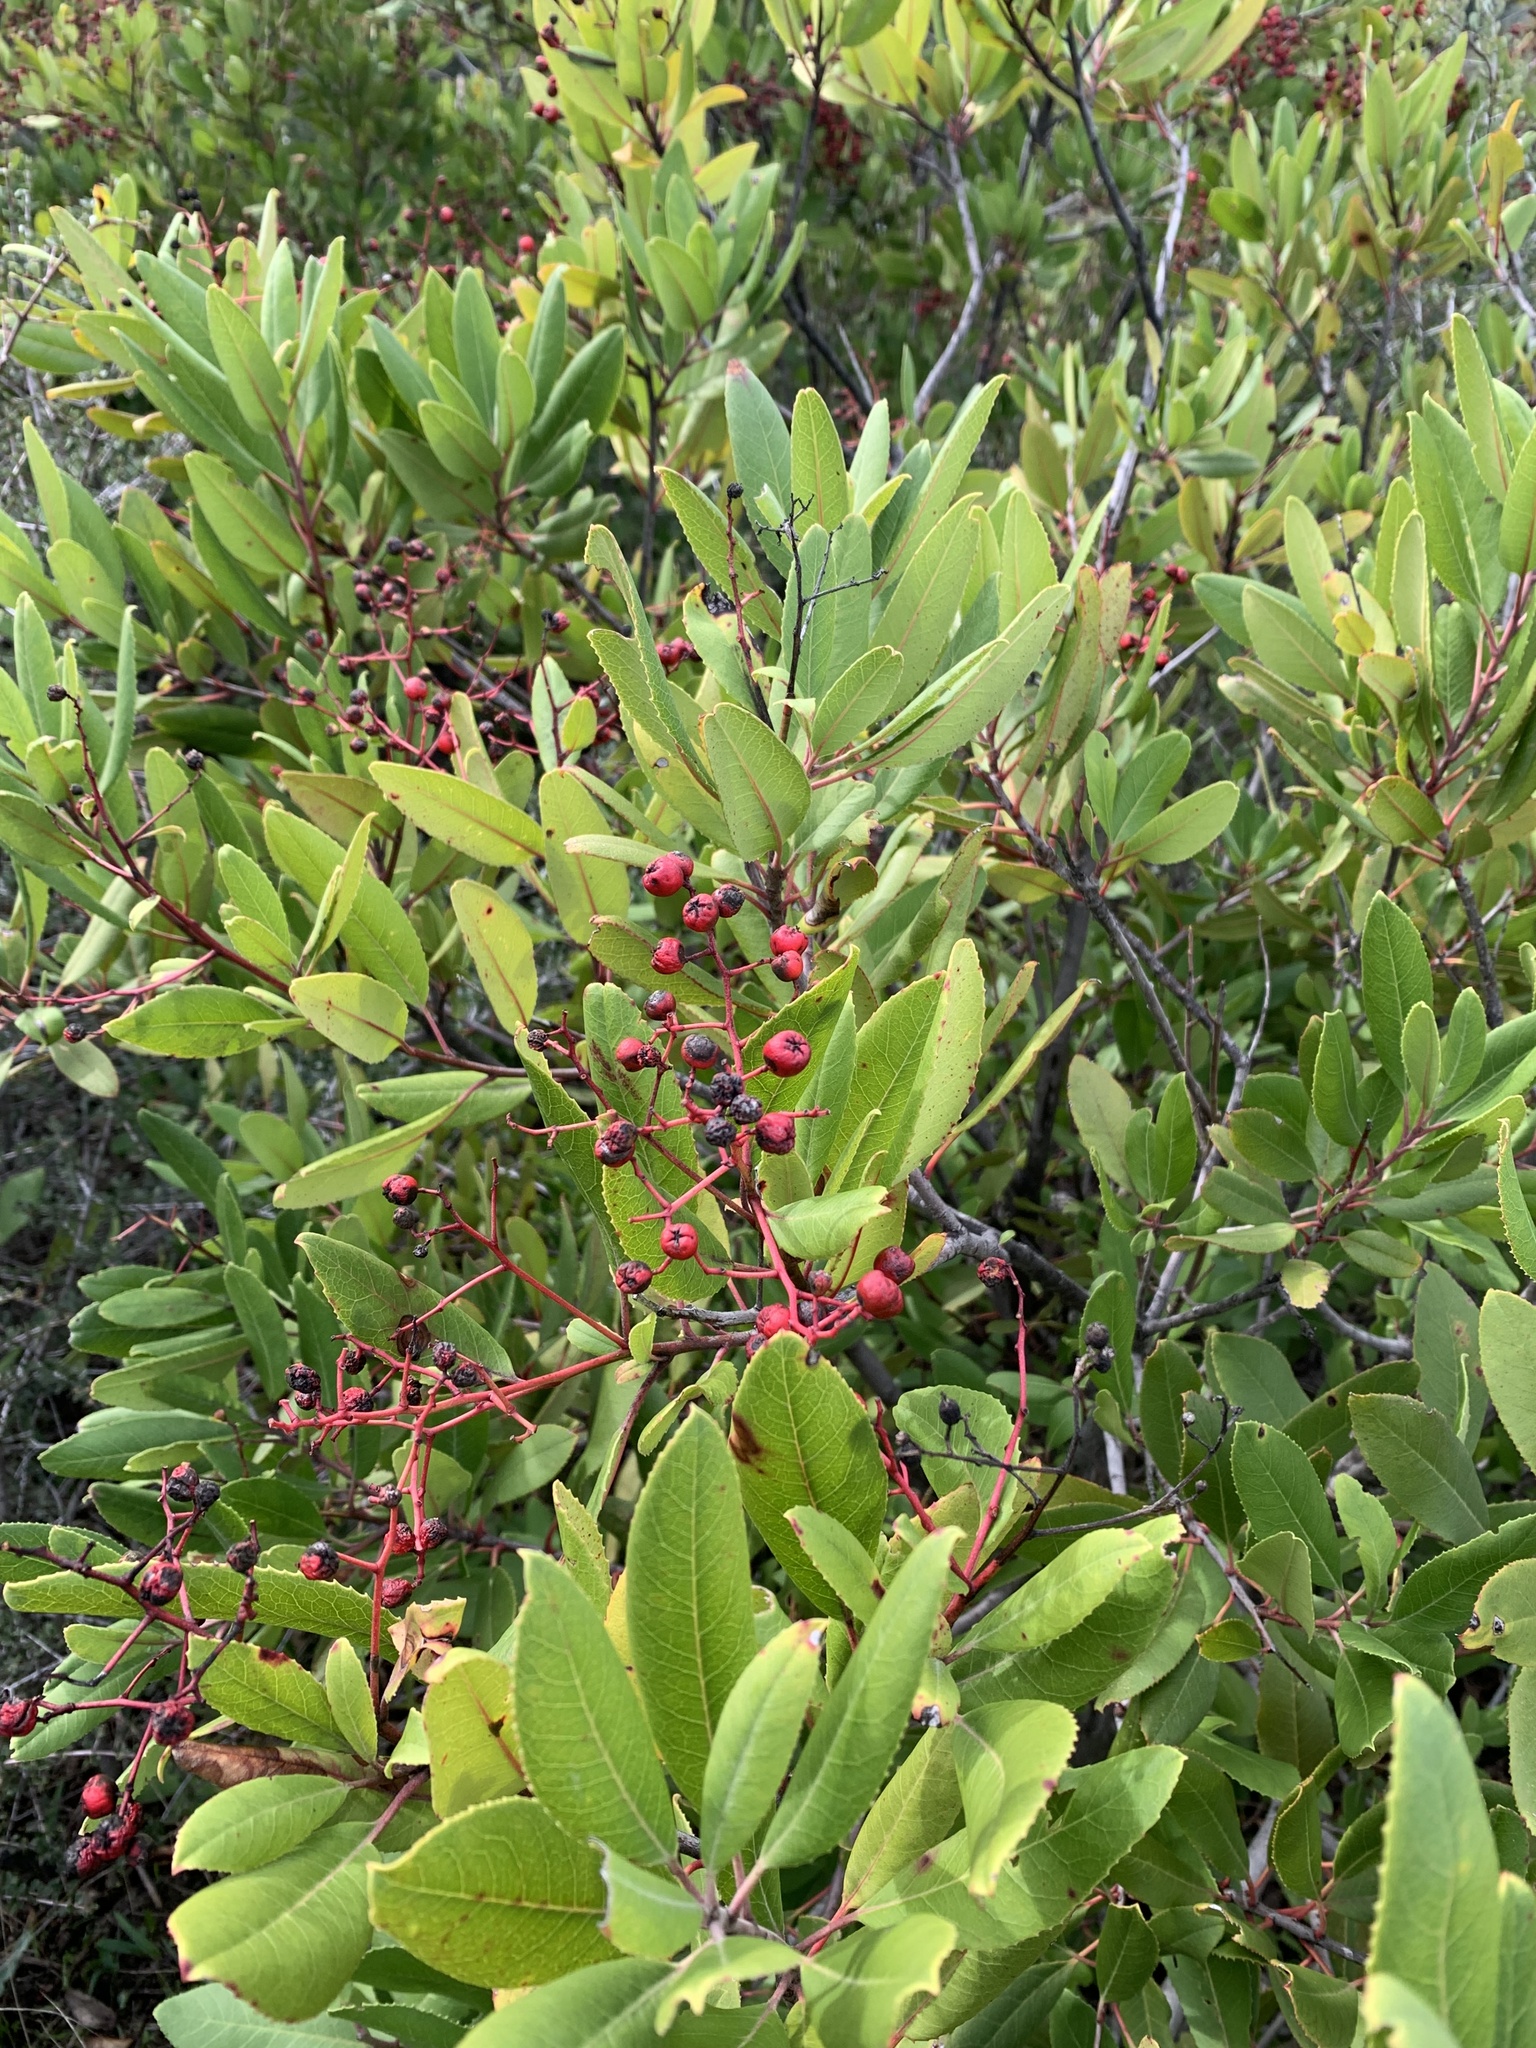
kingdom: Plantae
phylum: Tracheophyta
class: Magnoliopsida
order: Rosales
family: Rosaceae
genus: Heteromeles
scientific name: Heteromeles arbutifolia
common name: California-holly
